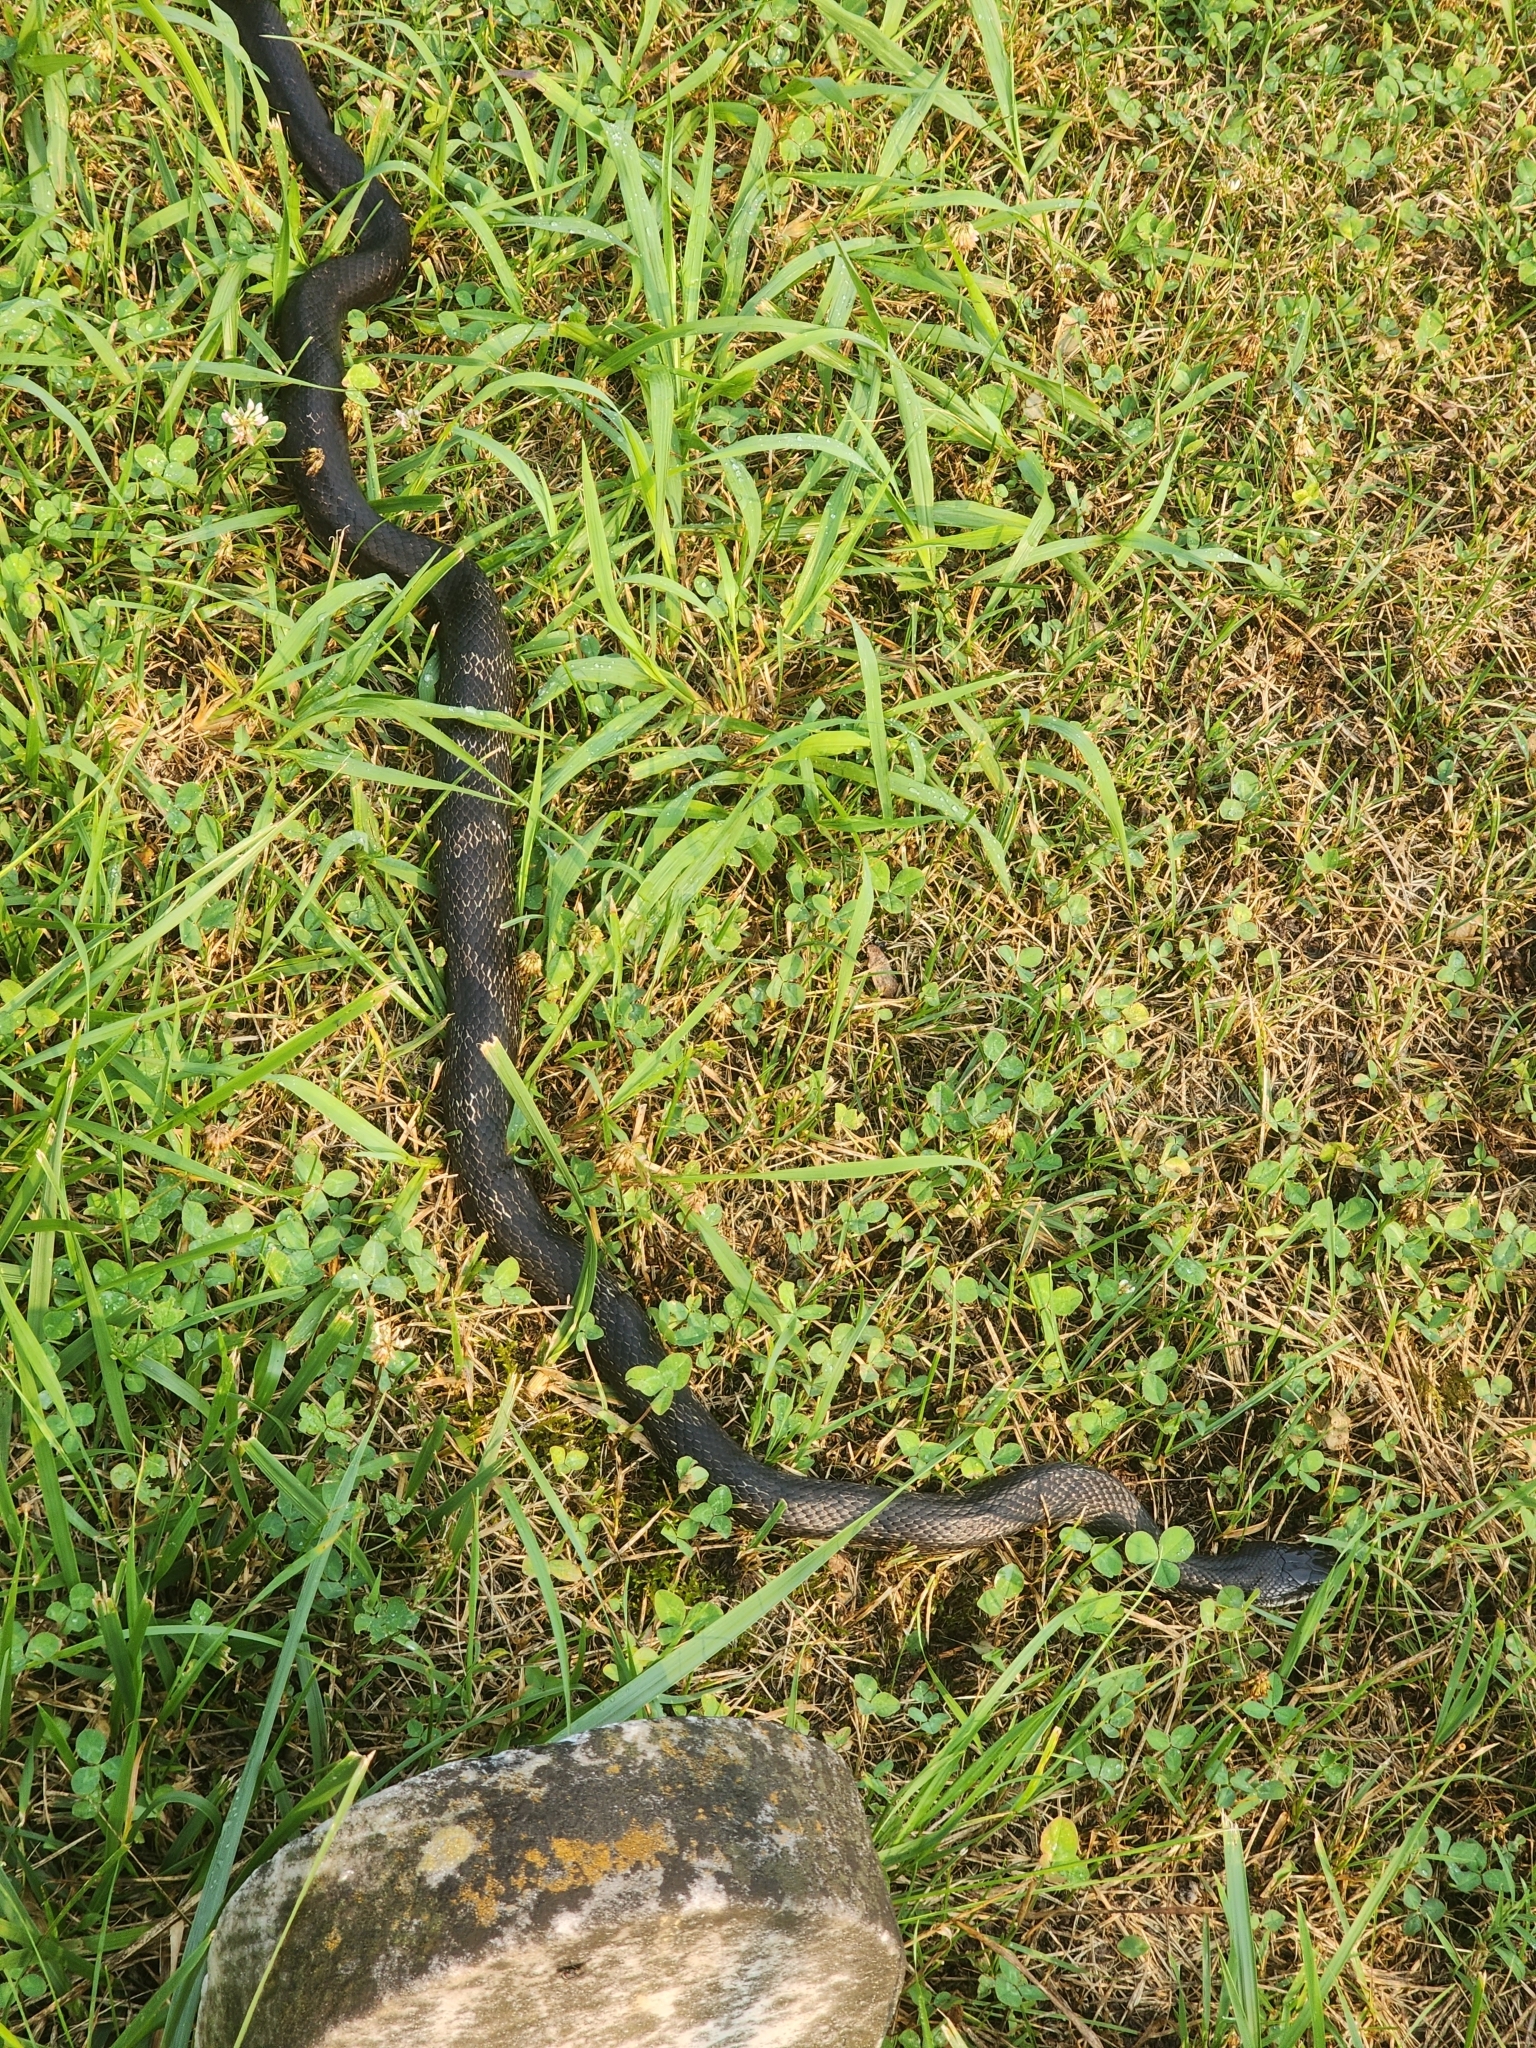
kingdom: Animalia
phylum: Chordata
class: Squamata
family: Colubridae
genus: Pantherophis
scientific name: Pantherophis spiloides
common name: Gray rat snake
